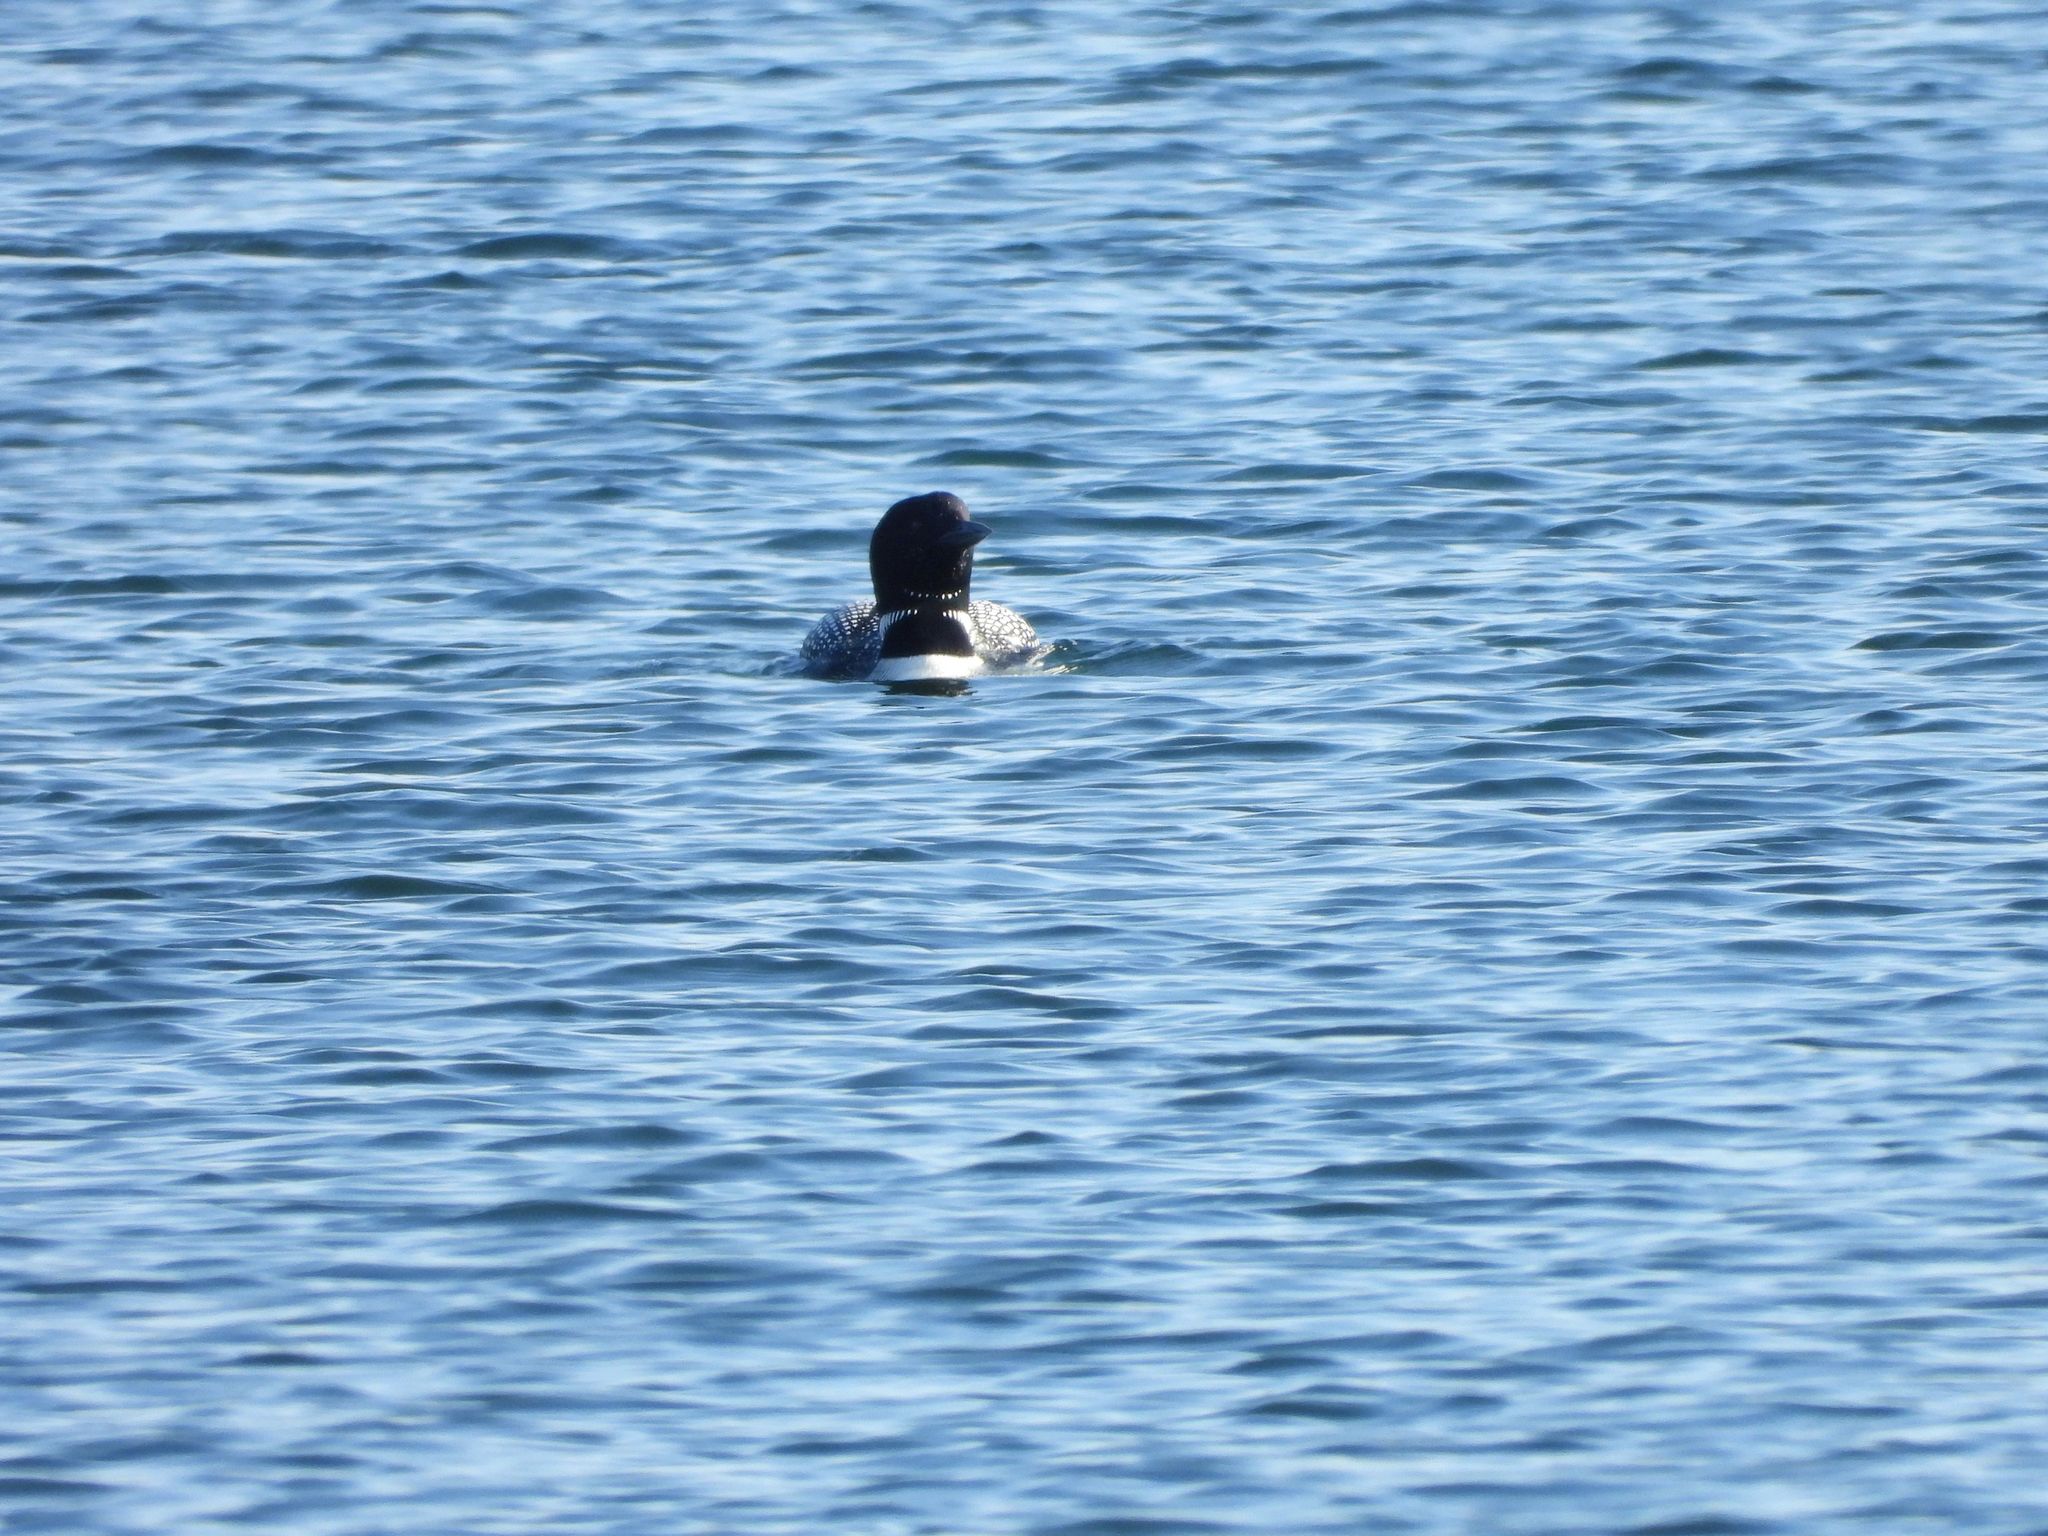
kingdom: Animalia
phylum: Chordata
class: Aves
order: Gaviiformes
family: Gaviidae
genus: Gavia
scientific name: Gavia immer
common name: Common loon
